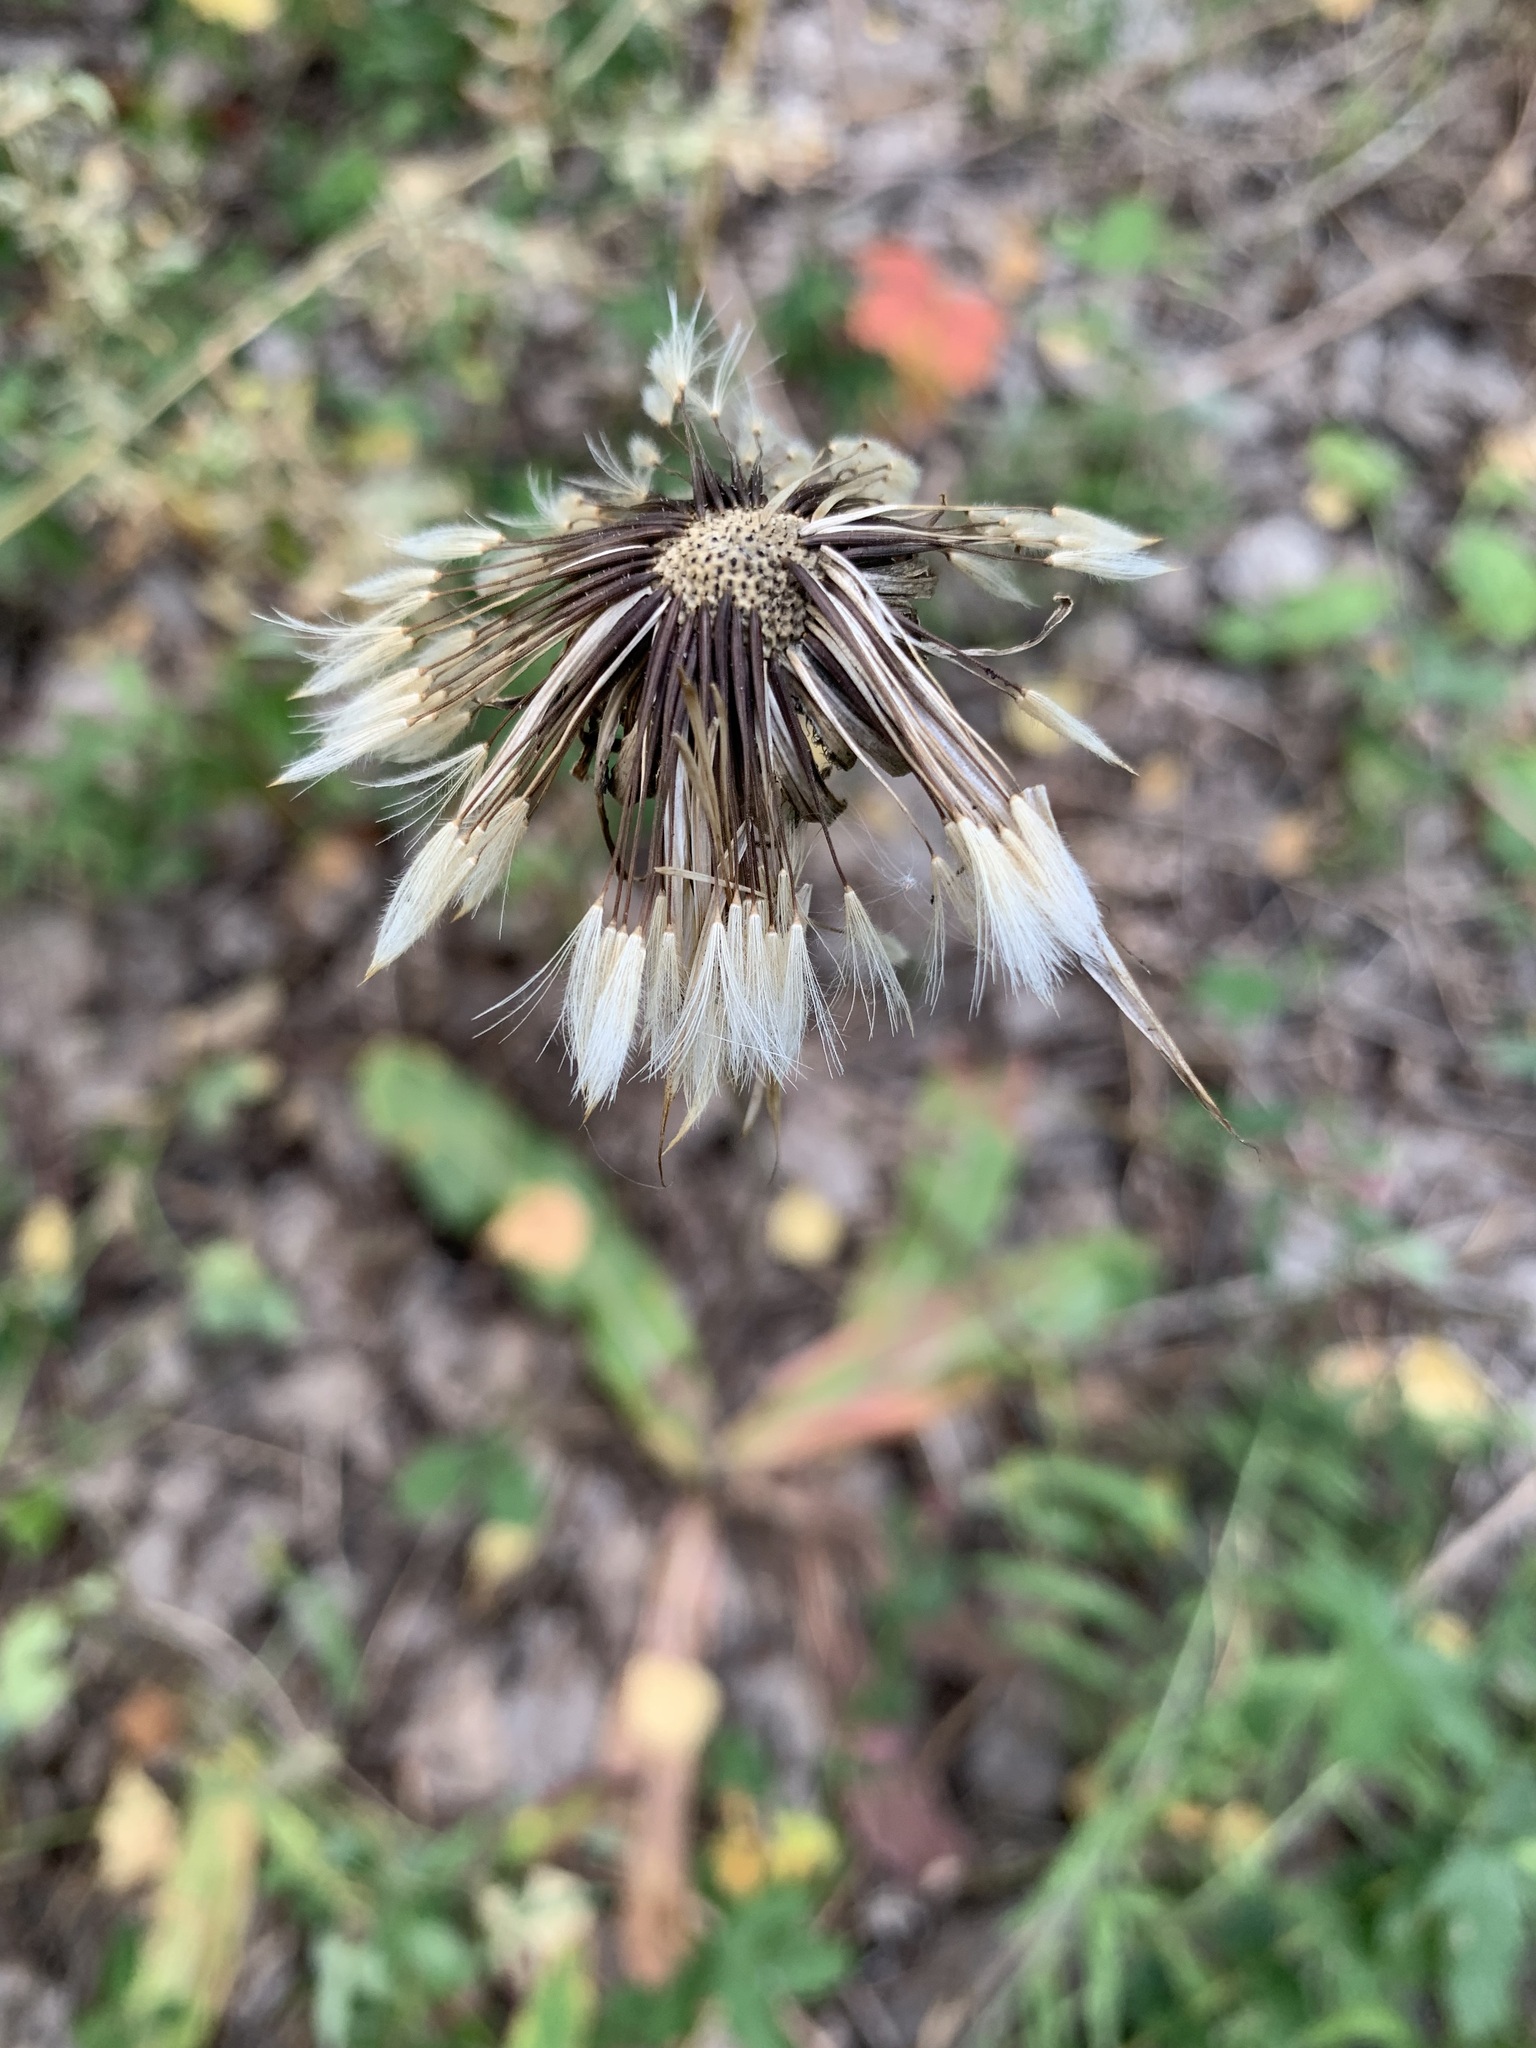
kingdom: Plantae
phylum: Tracheophyta
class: Magnoliopsida
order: Asterales
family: Asteraceae
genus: Trommsdorffia
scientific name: Trommsdorffia maculata
